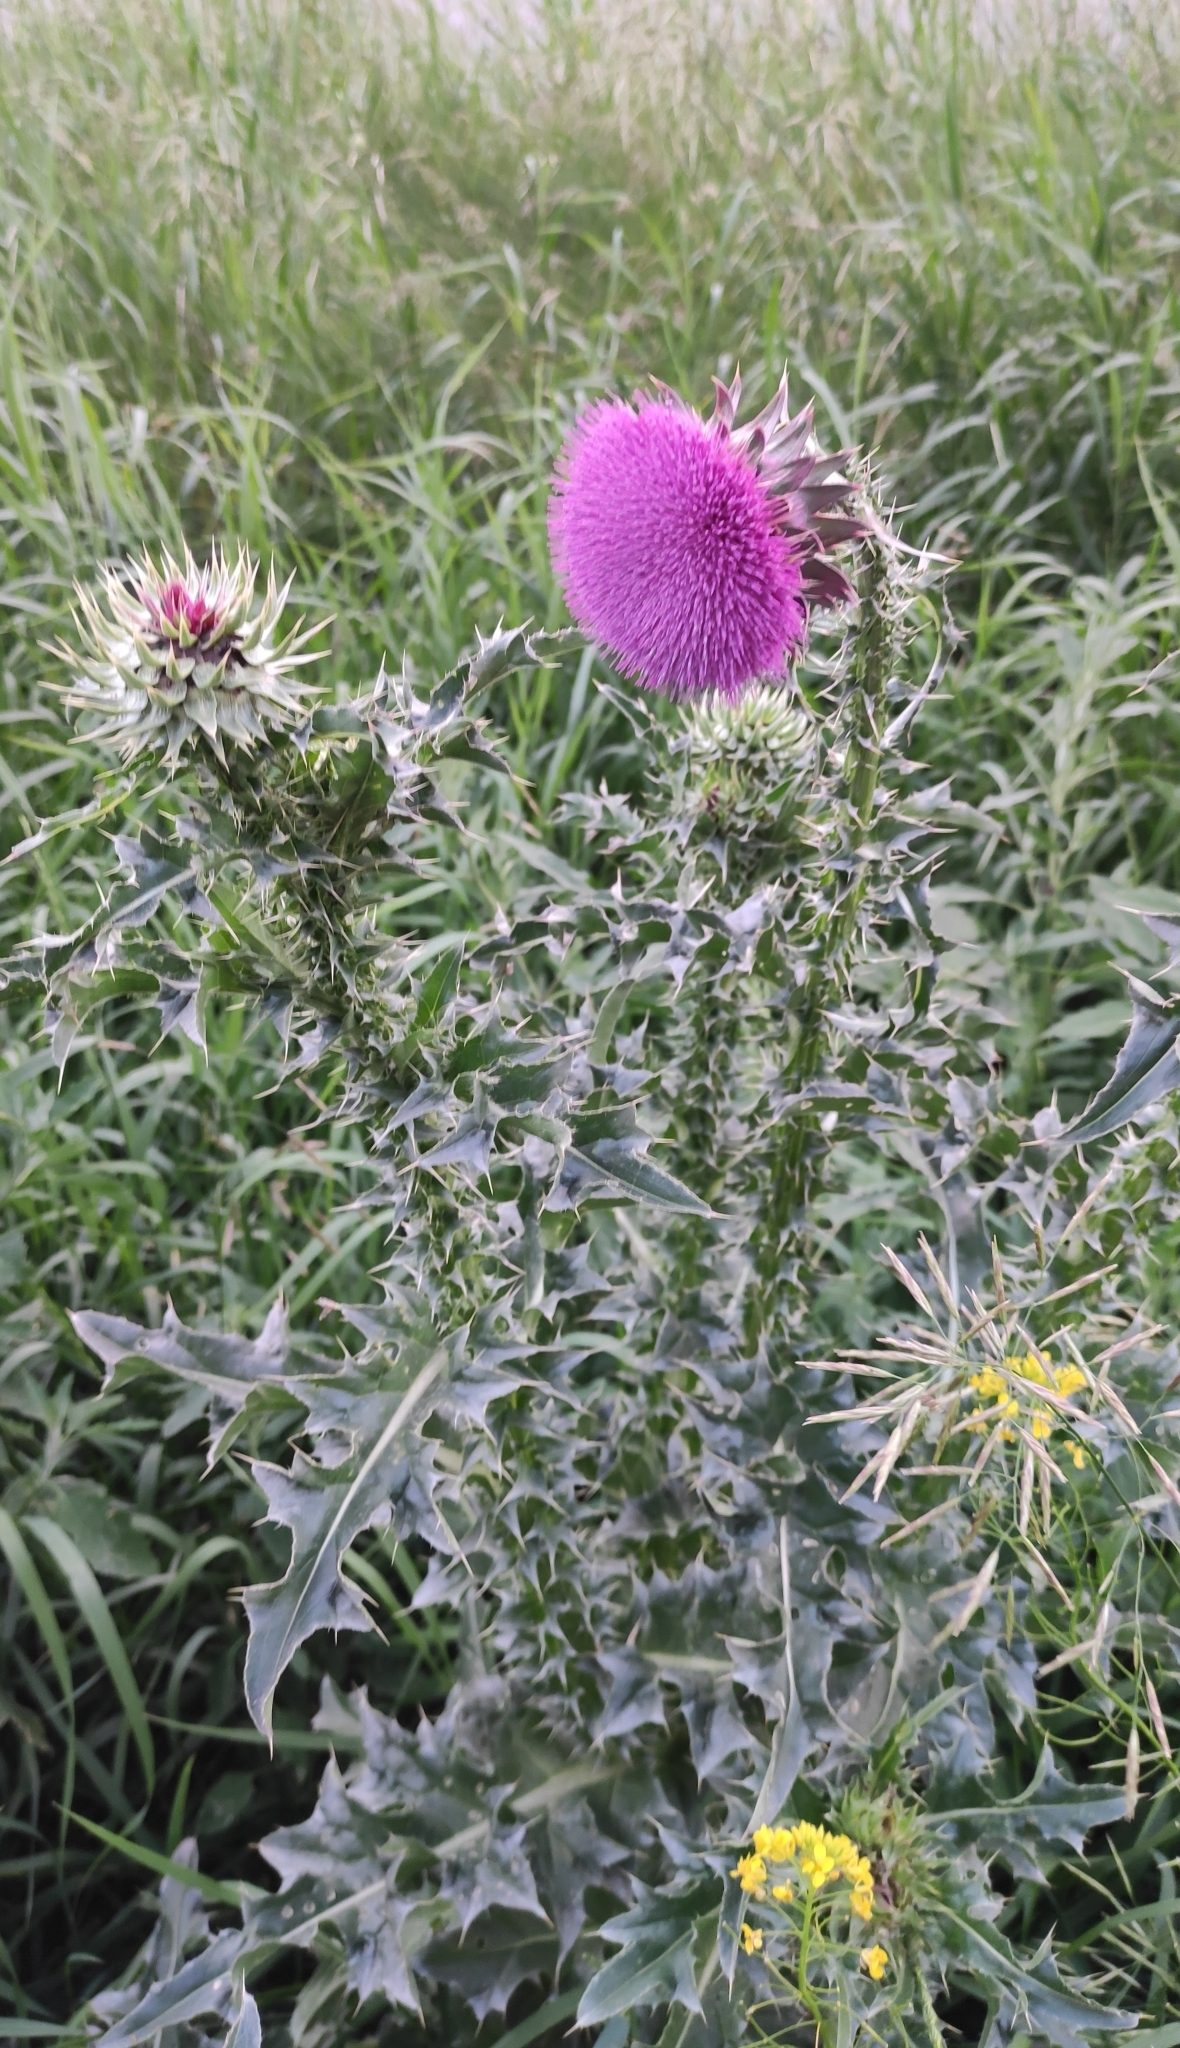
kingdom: Plantae
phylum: Tracheophyta
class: Magnoliopsida
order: Asterales
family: Asteraceae
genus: Carduus
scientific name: Carduus nutans
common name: Musk thistle
